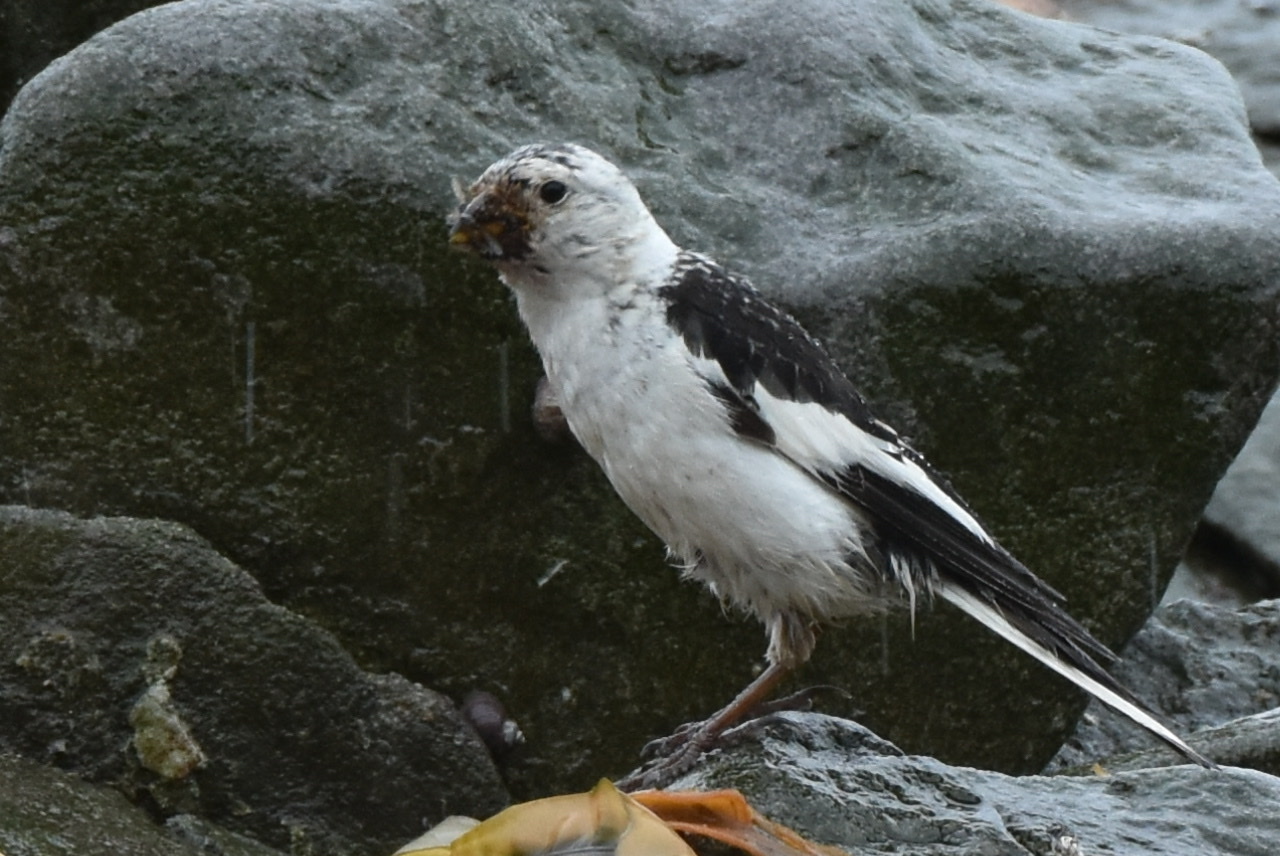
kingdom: Animalia
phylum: Chordata
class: Aves
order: Passeriformes
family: Calcariidae
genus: Plectrophenax
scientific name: Plectrophenax nivalis
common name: Snow bunting
